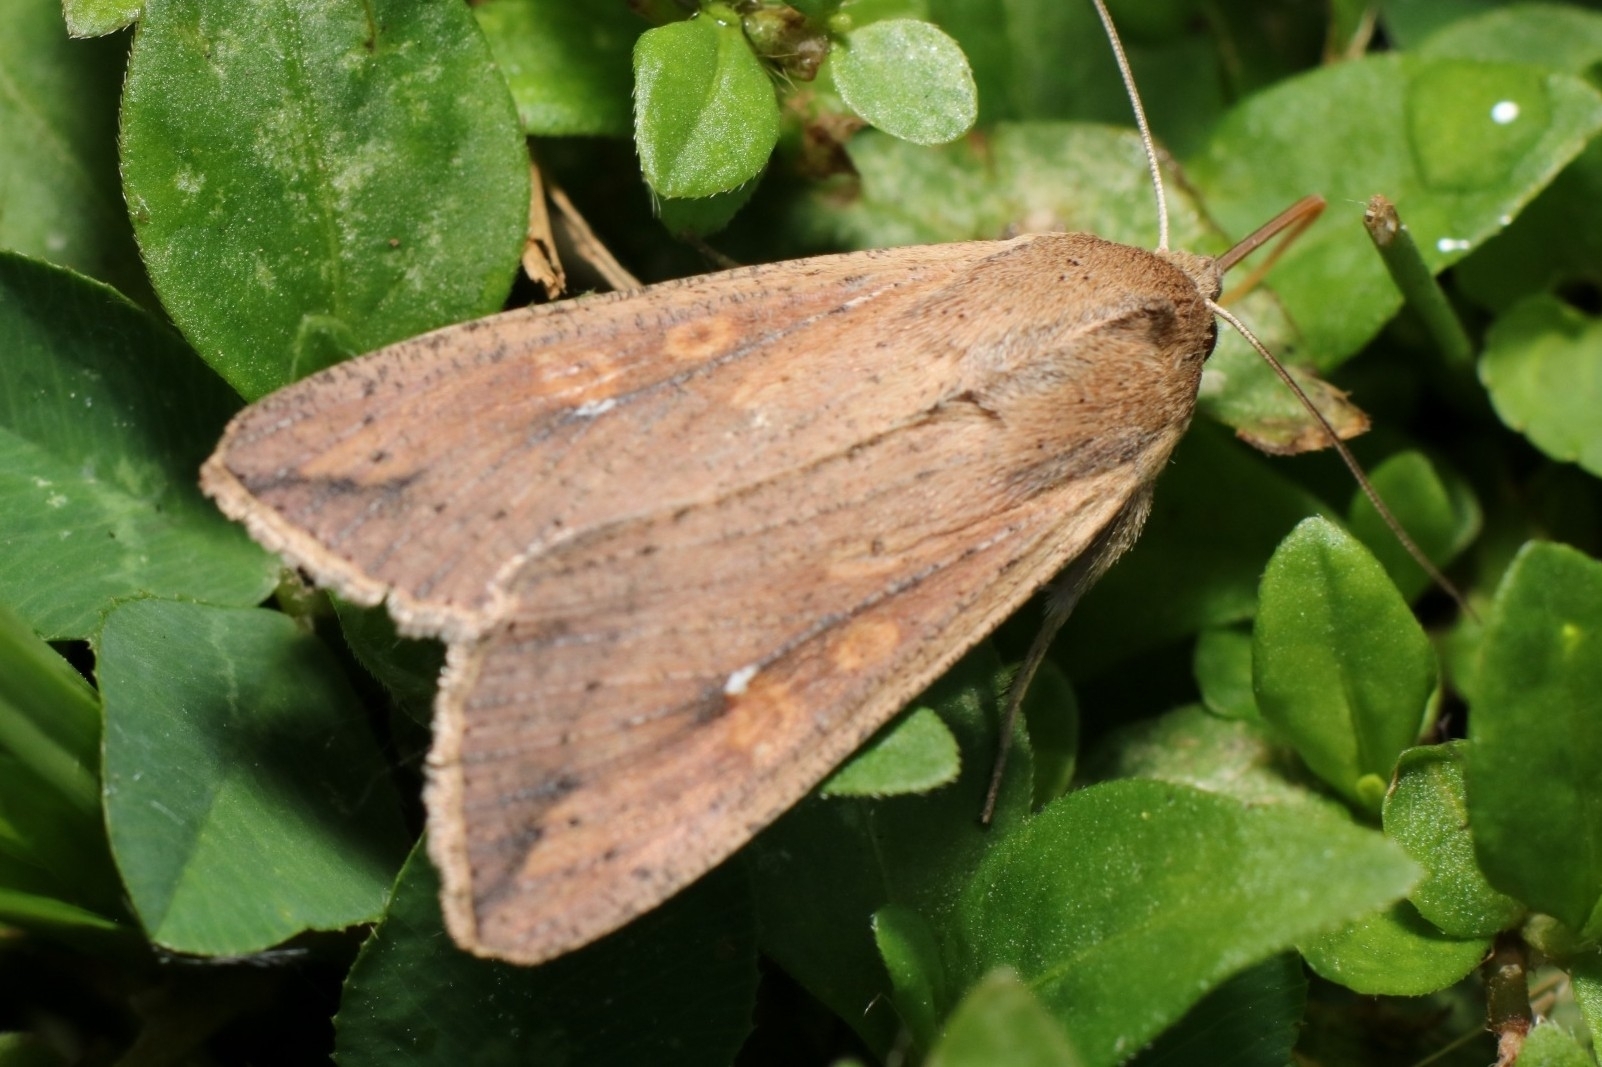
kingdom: Animalia
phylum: Arthropoda
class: Insecta
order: Lepidoptera
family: Noctuidae
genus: Mythimna
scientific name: Mythimna unipuncta
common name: White-speck
